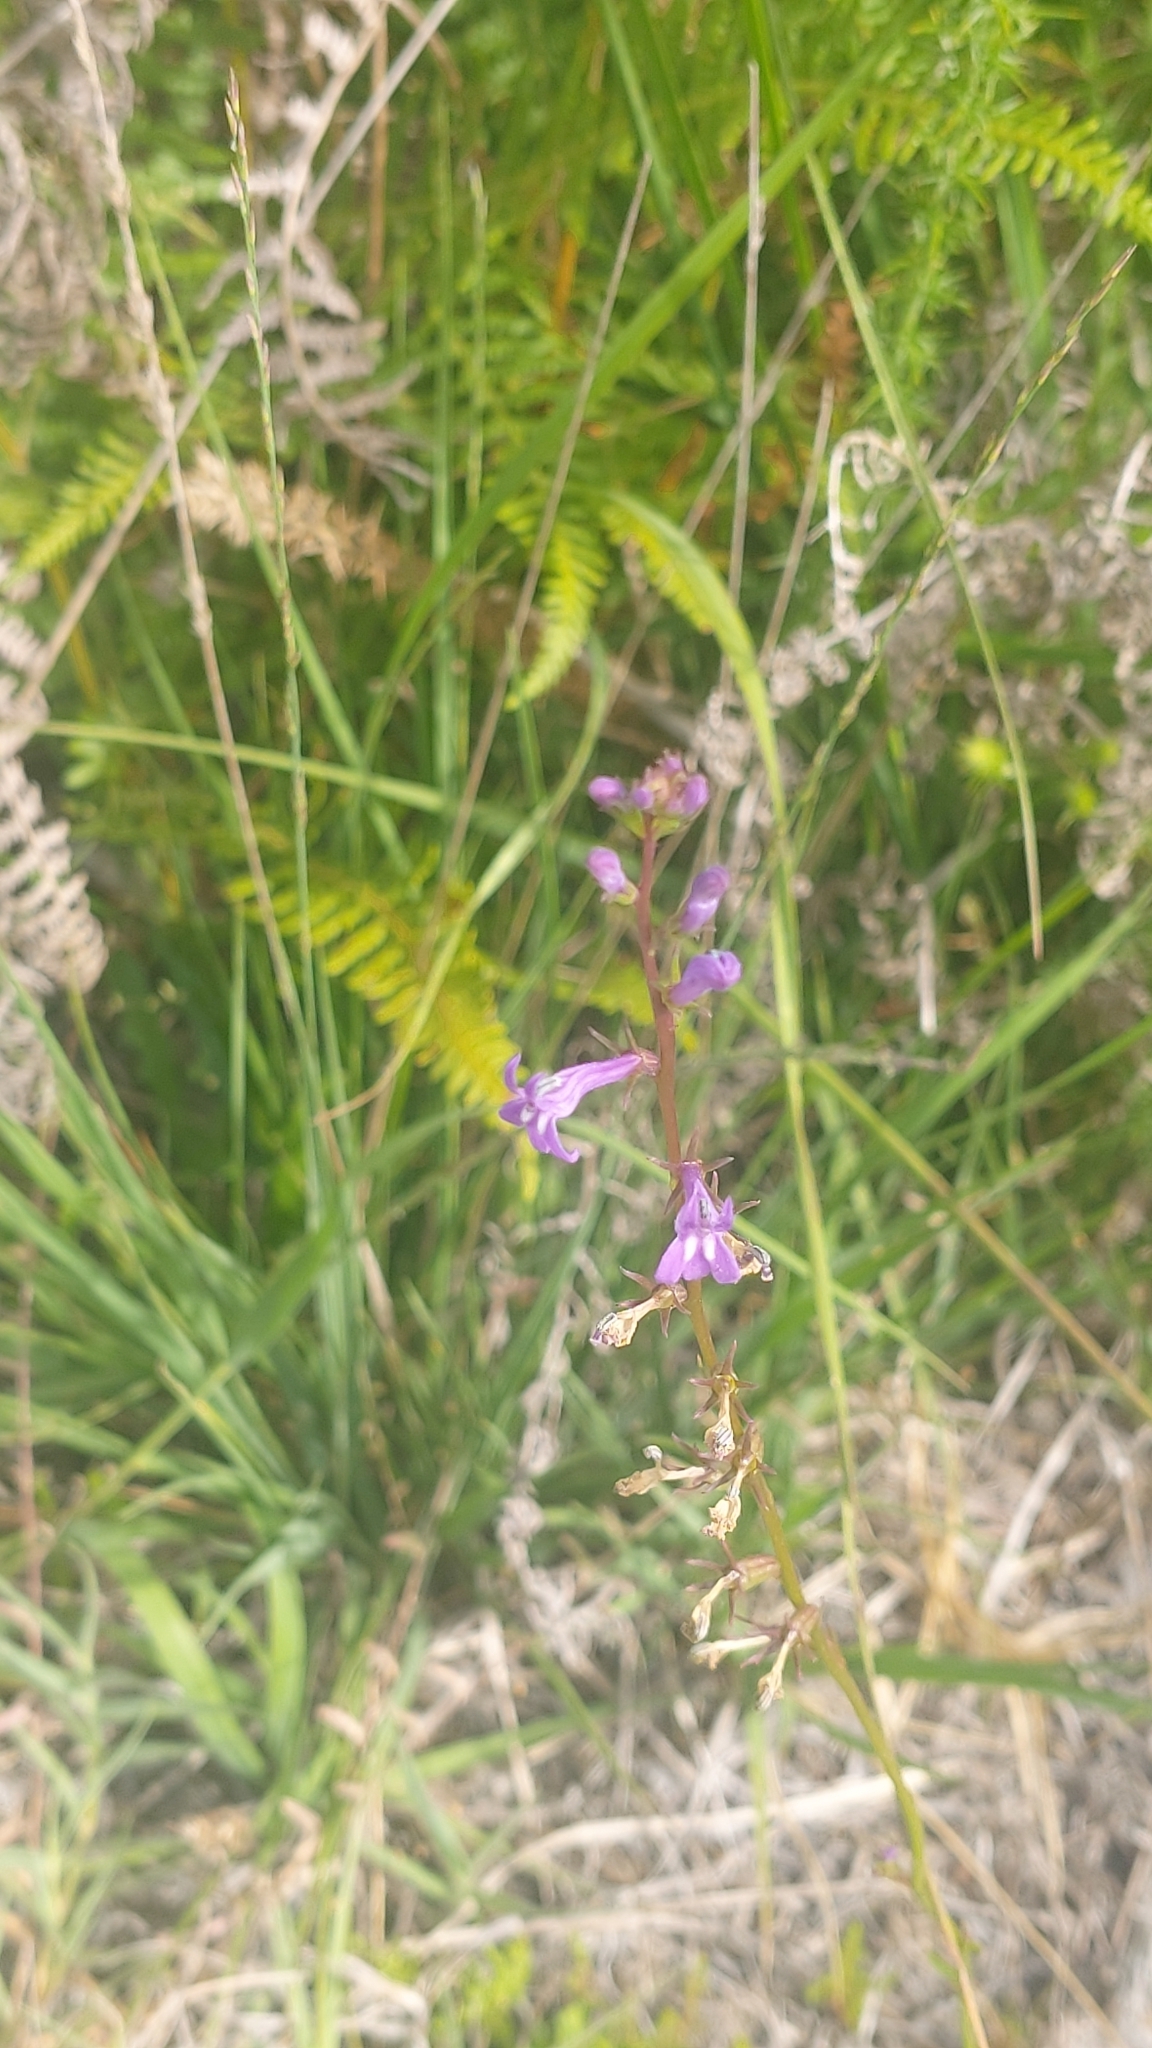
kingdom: Plantae
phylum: Tracheophyta
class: Magnoliopsida
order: Asterales
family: Campanulaceae
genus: Lobelia
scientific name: Lobelia urens
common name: Heath lobelia
